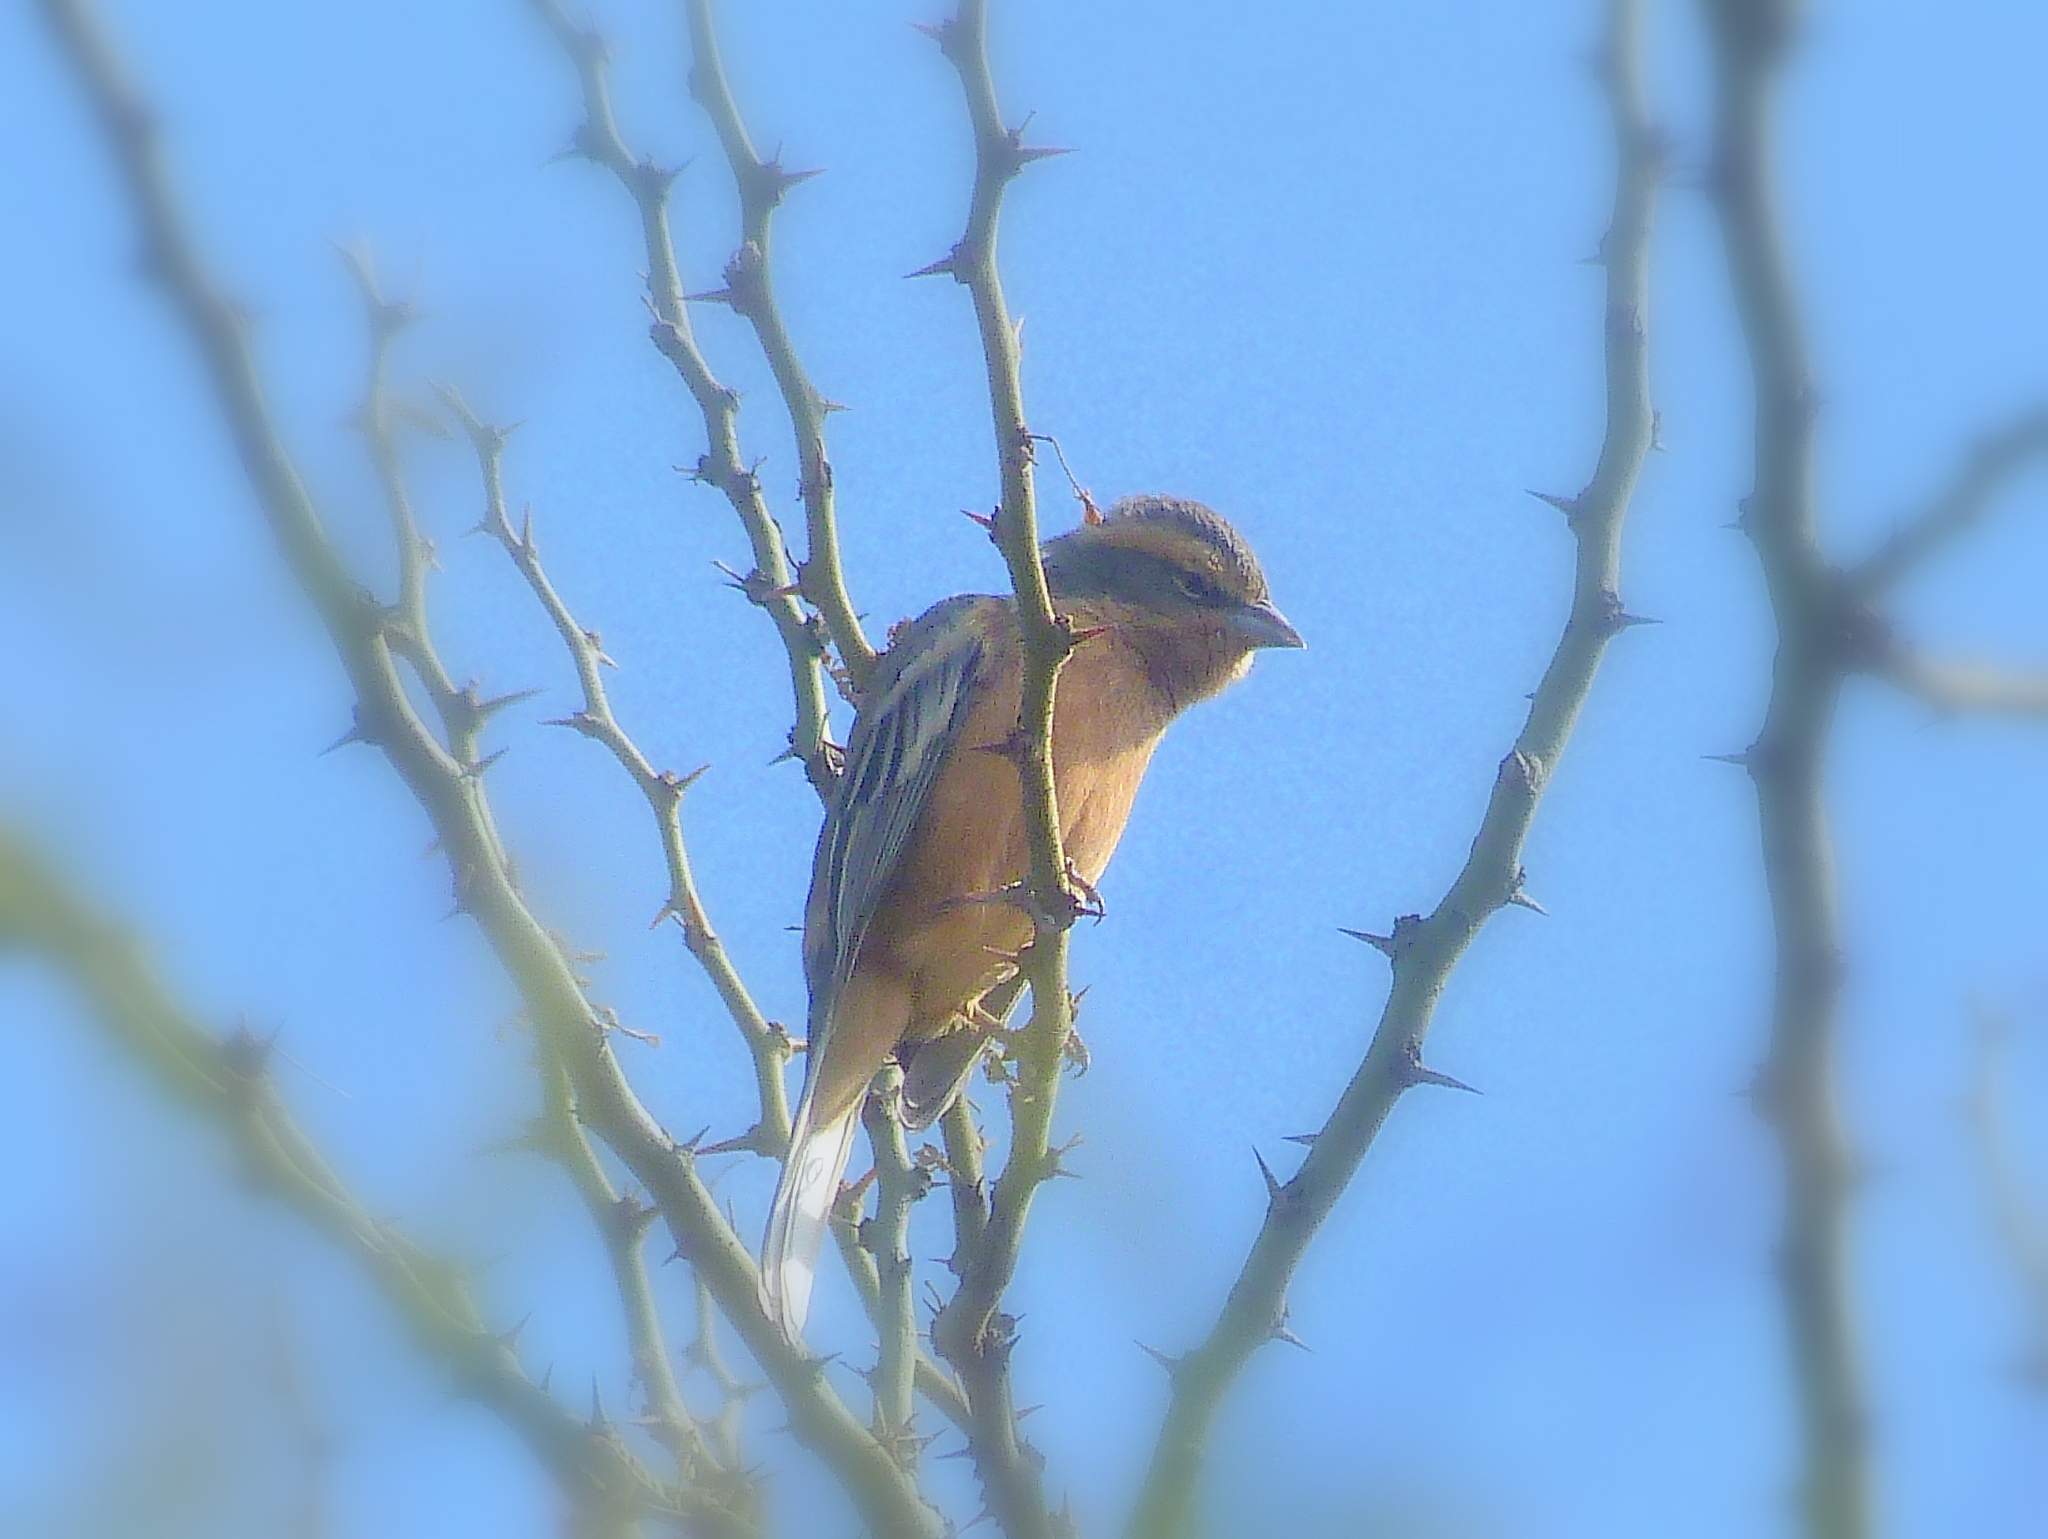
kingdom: Animalia
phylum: Chordata
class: Aves
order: Passeriformes
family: Thraupidae
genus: Poospiza
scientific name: Poospiza ornata
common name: Cinnamon warbling finch
